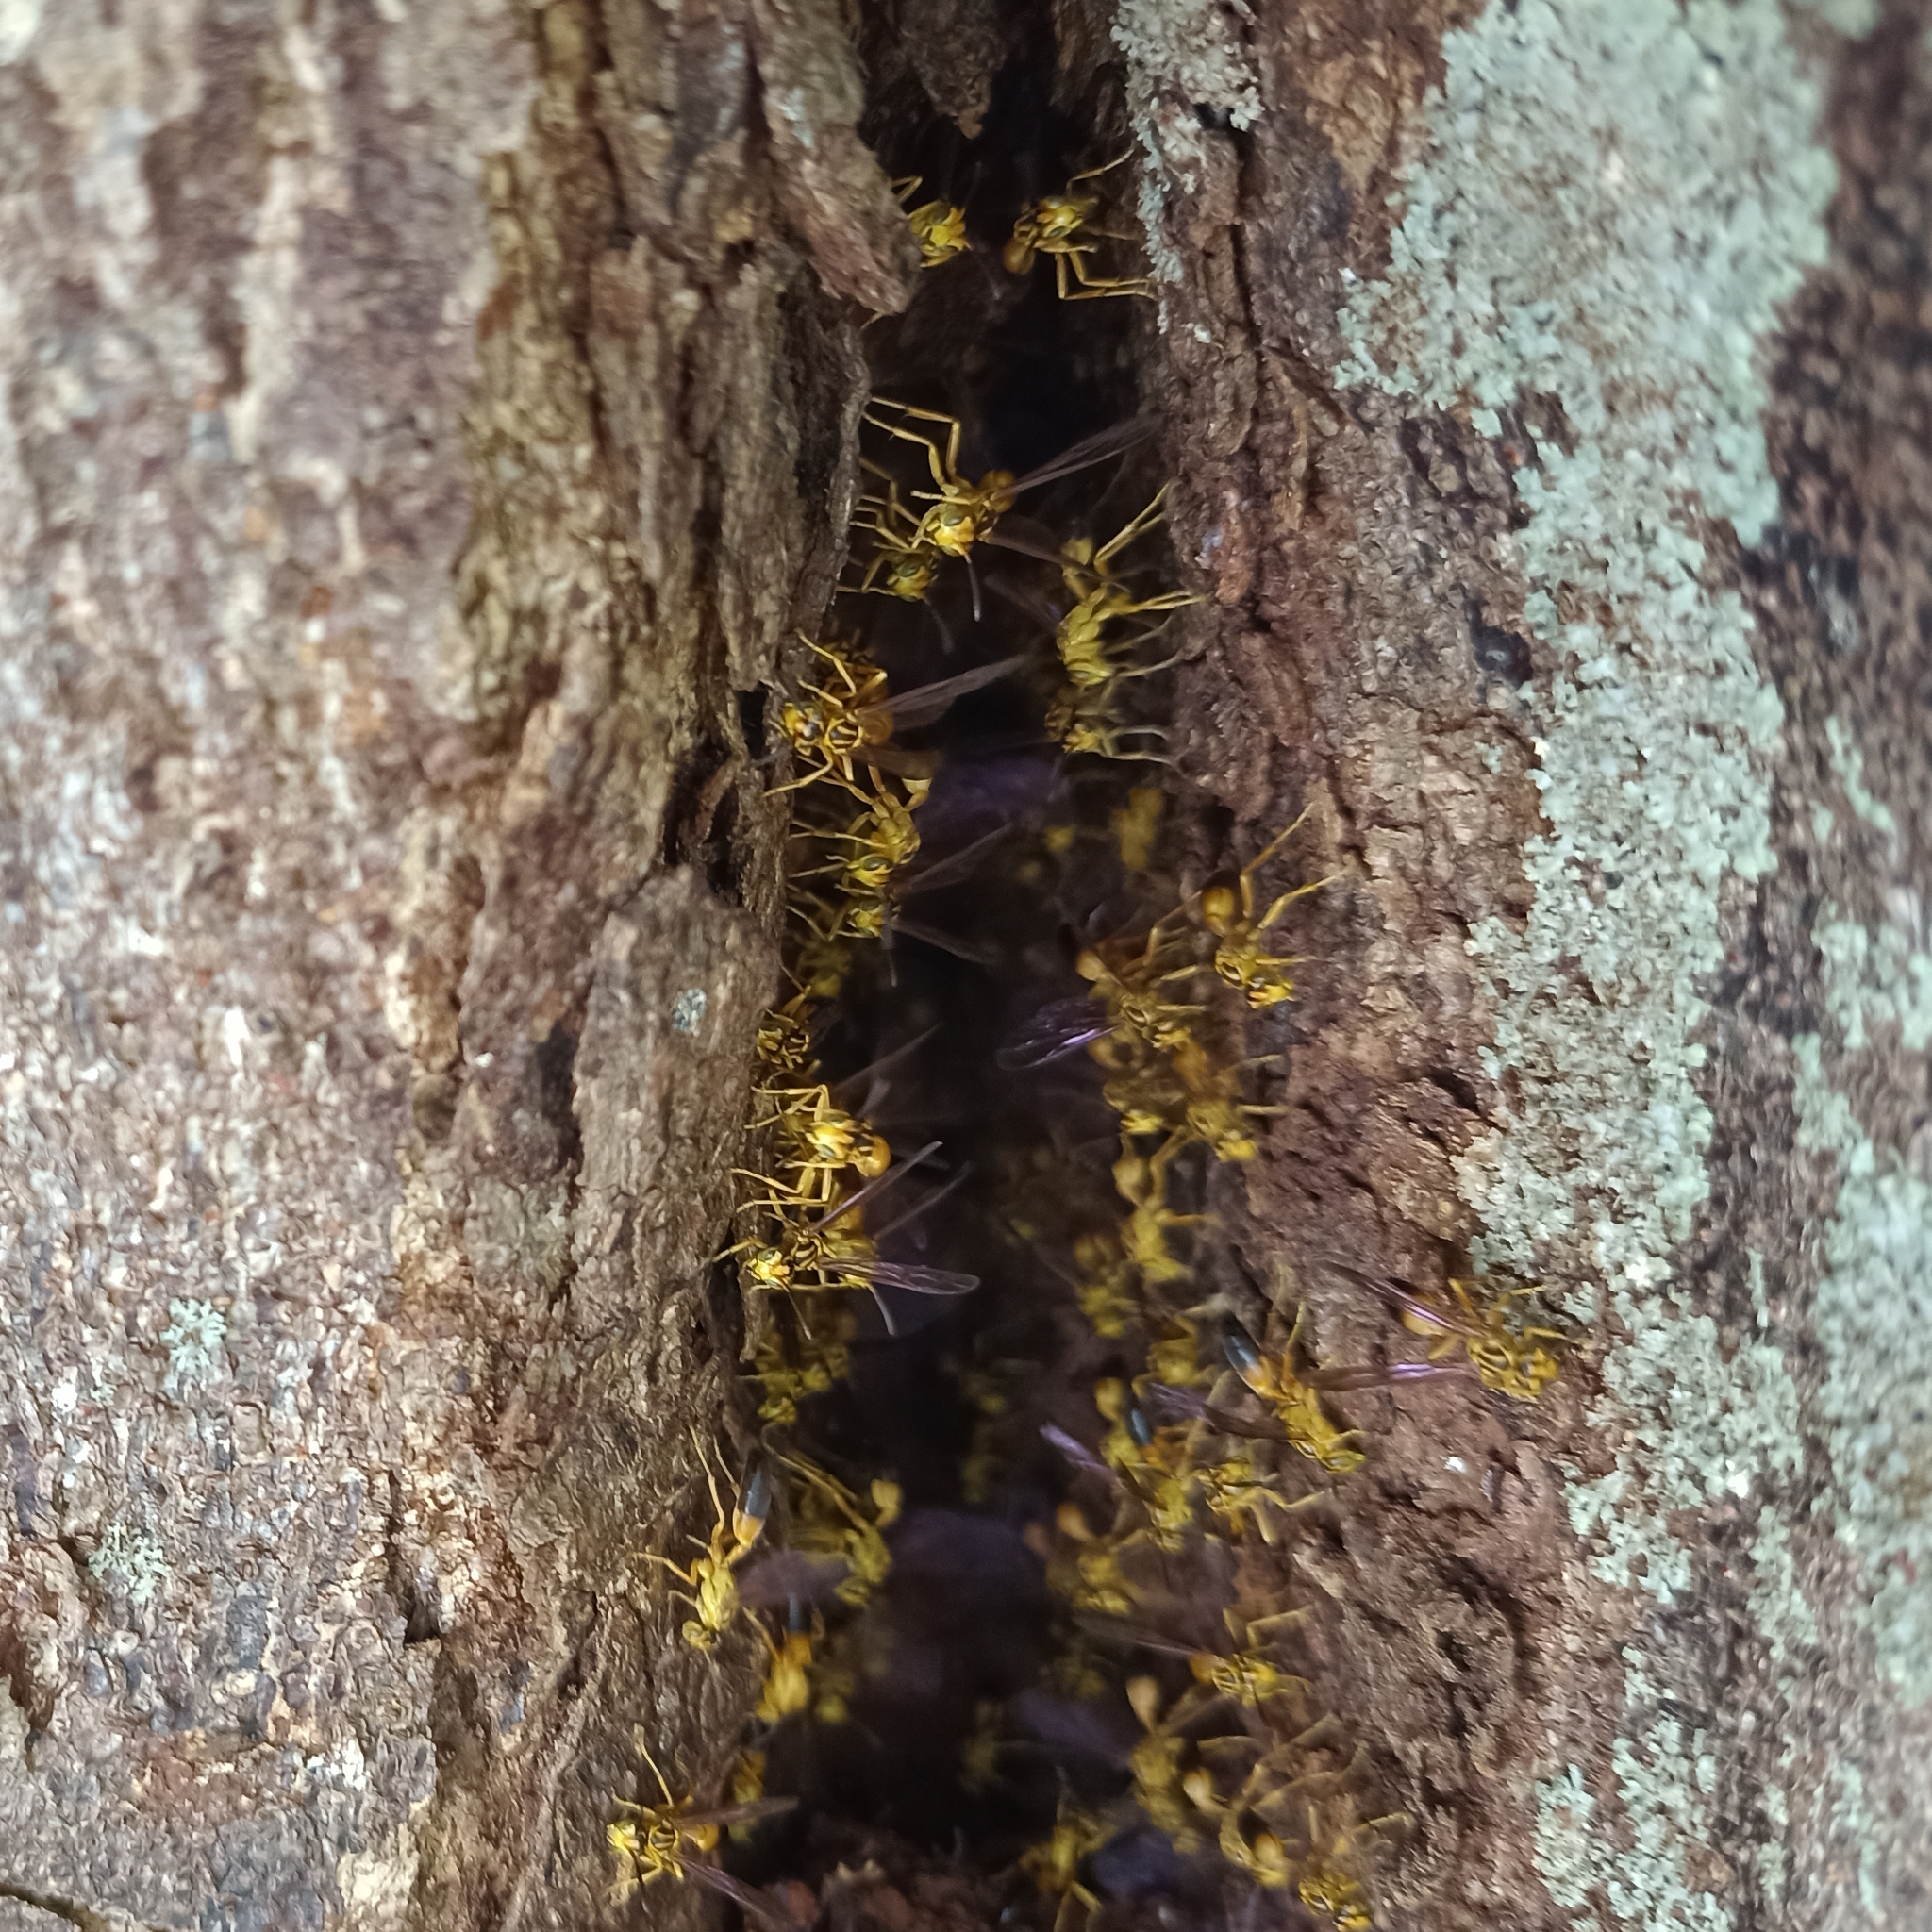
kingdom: Animalia
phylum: Arthropoda
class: Insecta
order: Hymenoptera
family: Vespidae
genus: Agelaia
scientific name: Agelaia pallipes
